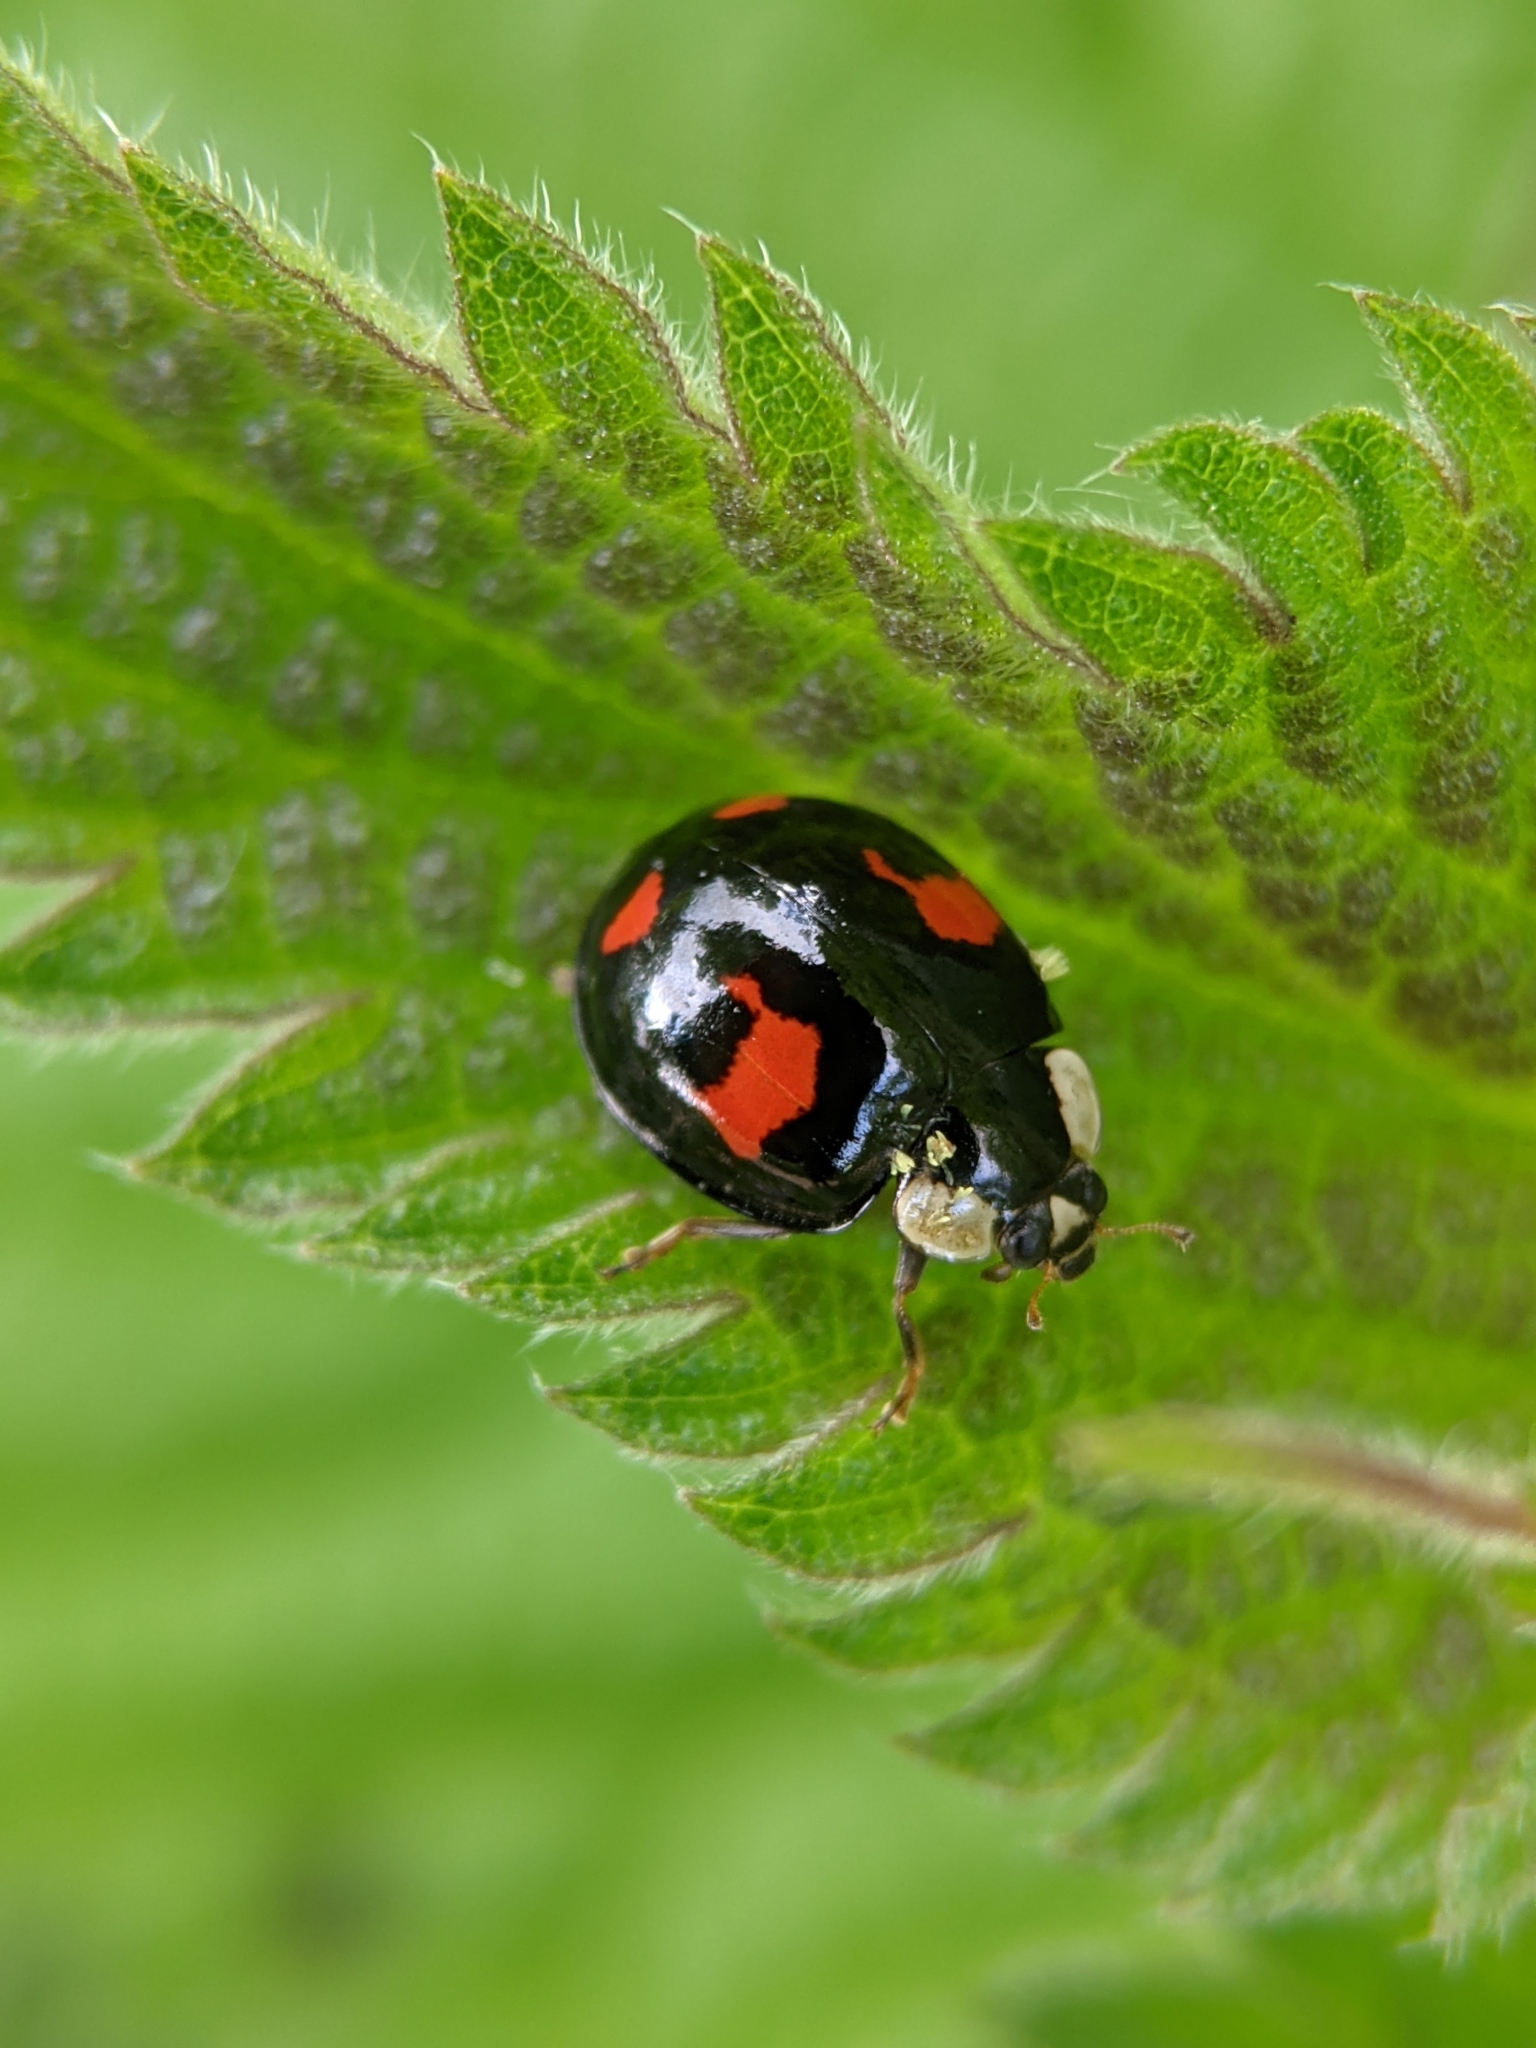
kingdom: Animalia
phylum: Arthropoda
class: Insecta
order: Coleoptera
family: Coccinellidae
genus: Harmonia
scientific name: Harmonia axyridis
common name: Harlequin ladybird
